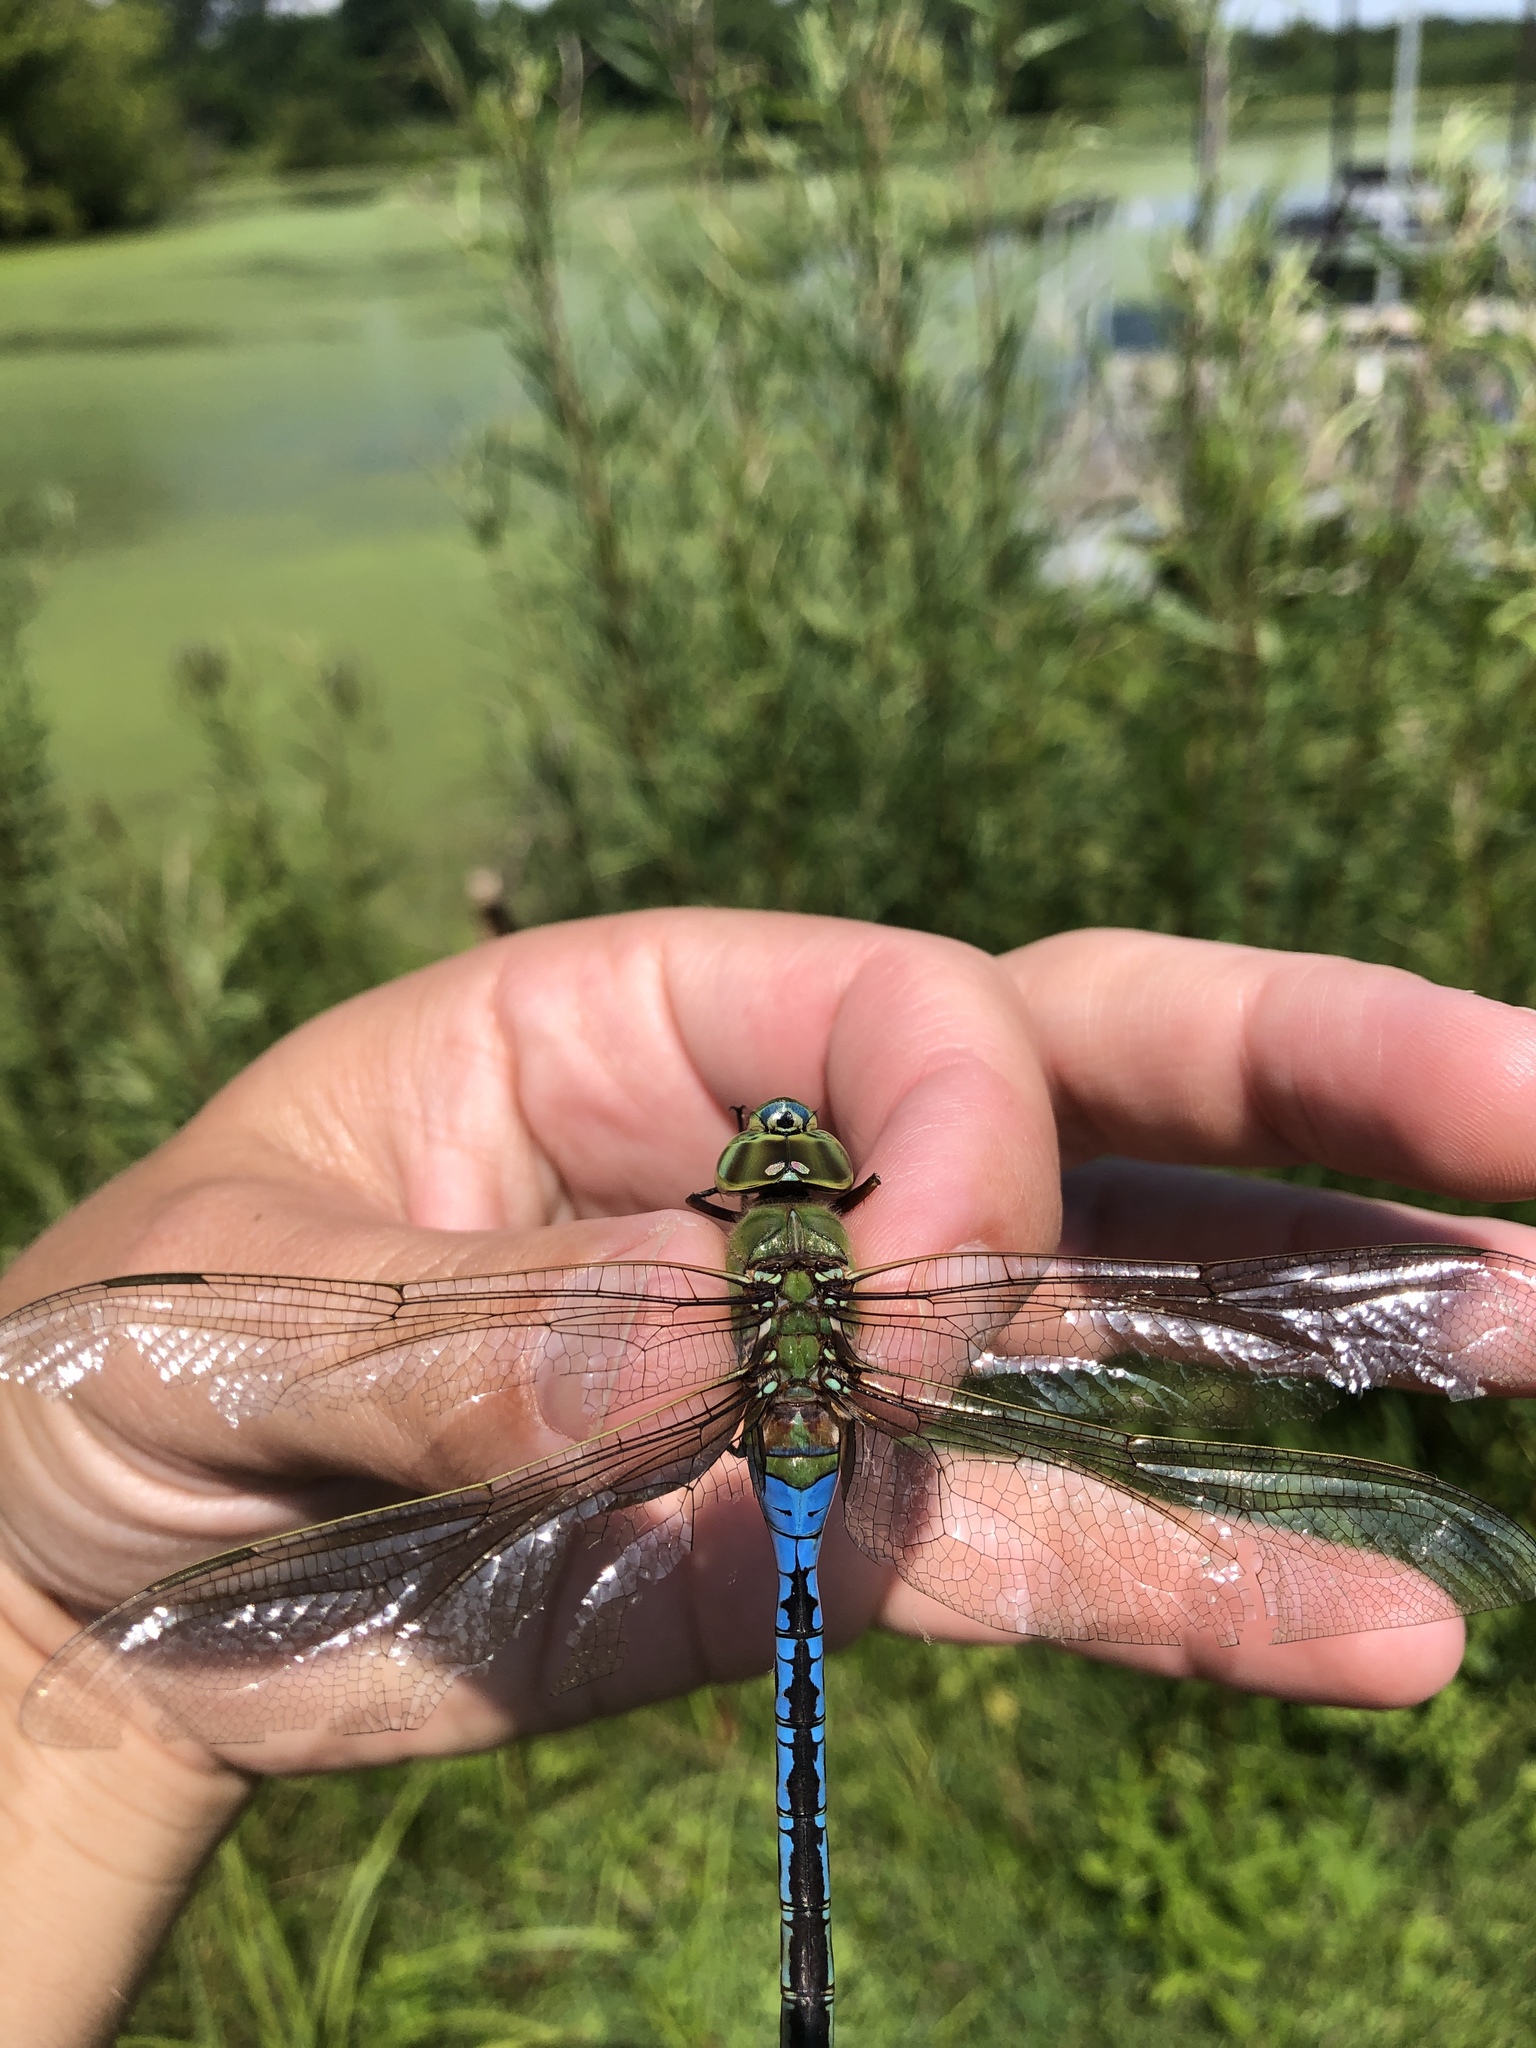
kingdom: Animalia
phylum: Arthropoda
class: Insecta
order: Odonata
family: Aeshnidae
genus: Anax
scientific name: Anax junius
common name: Common green darner
